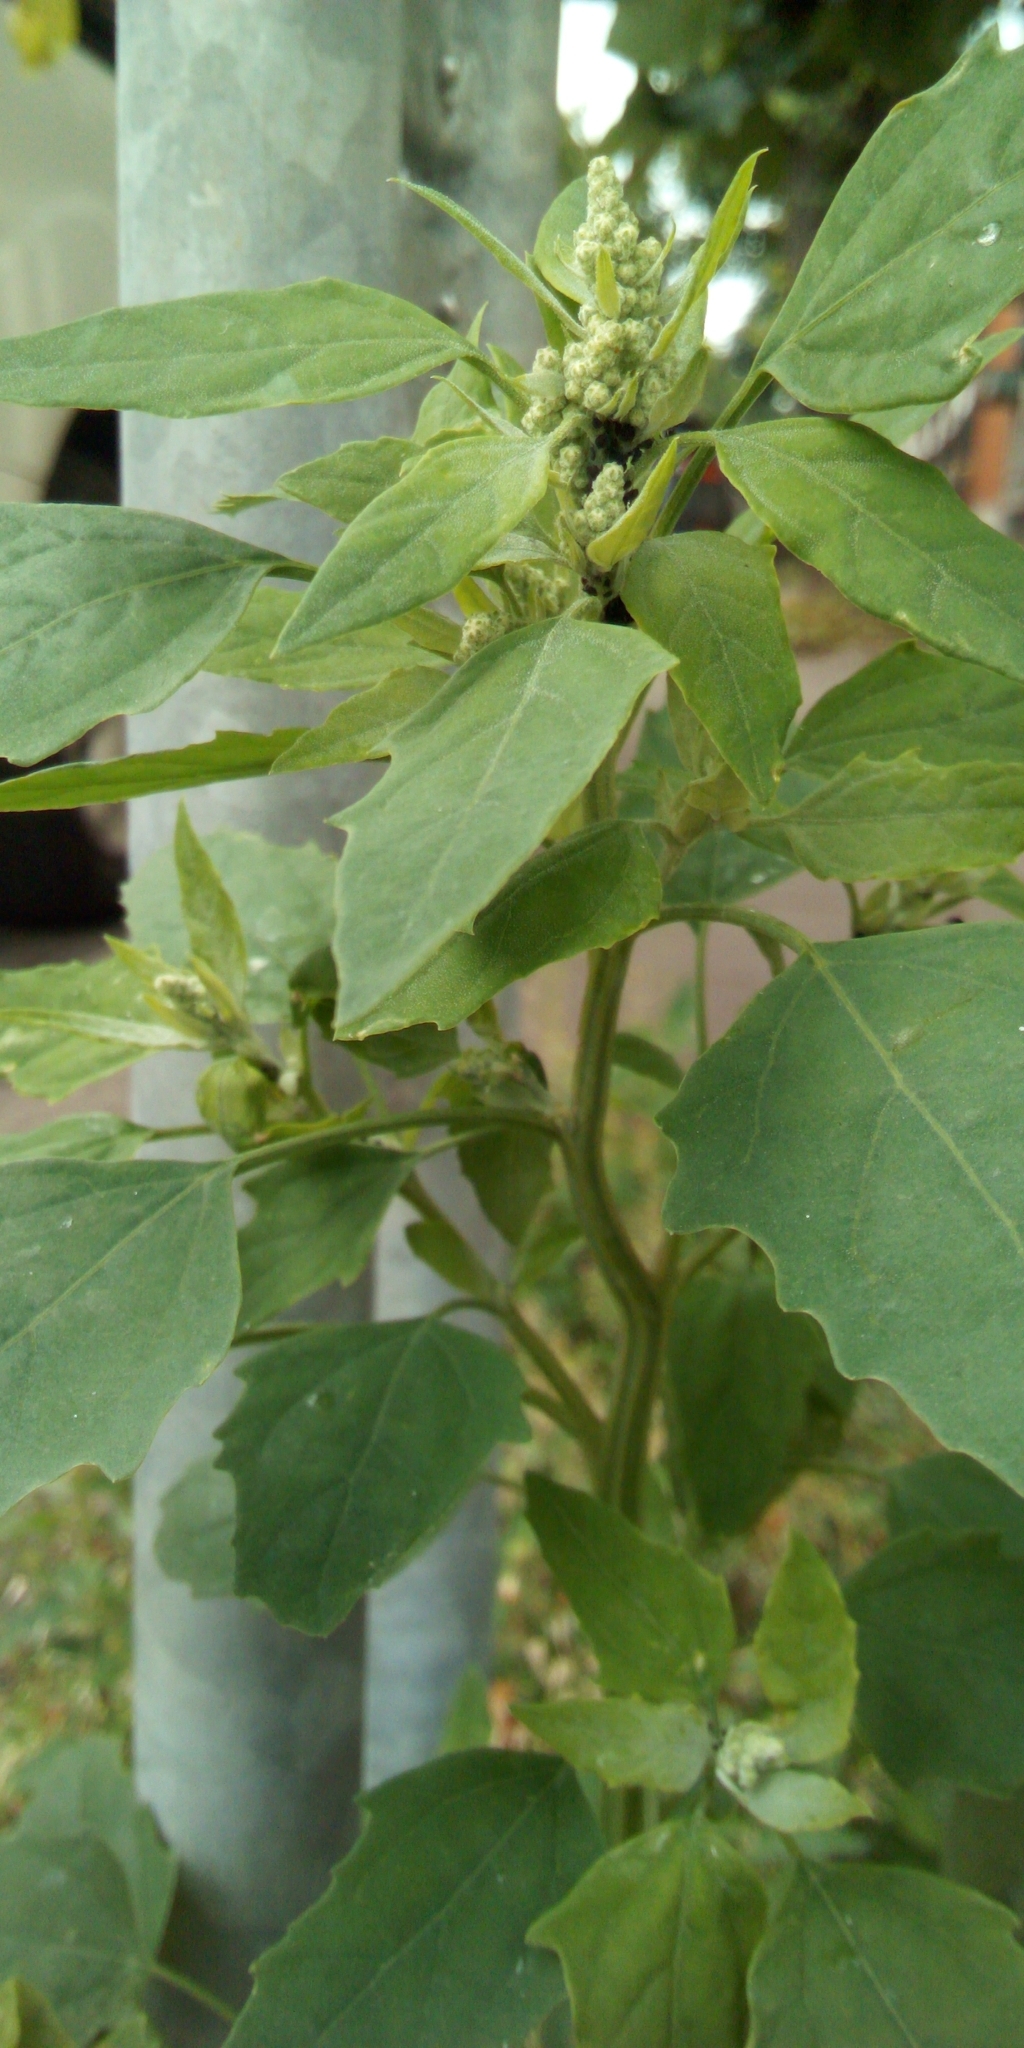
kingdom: Plantae
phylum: Tracheophyta
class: Magnoliopsida
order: Caryophyllales
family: Amaranthaceae
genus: Chenopodium
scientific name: Chenopodium album
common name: Fat-hen
